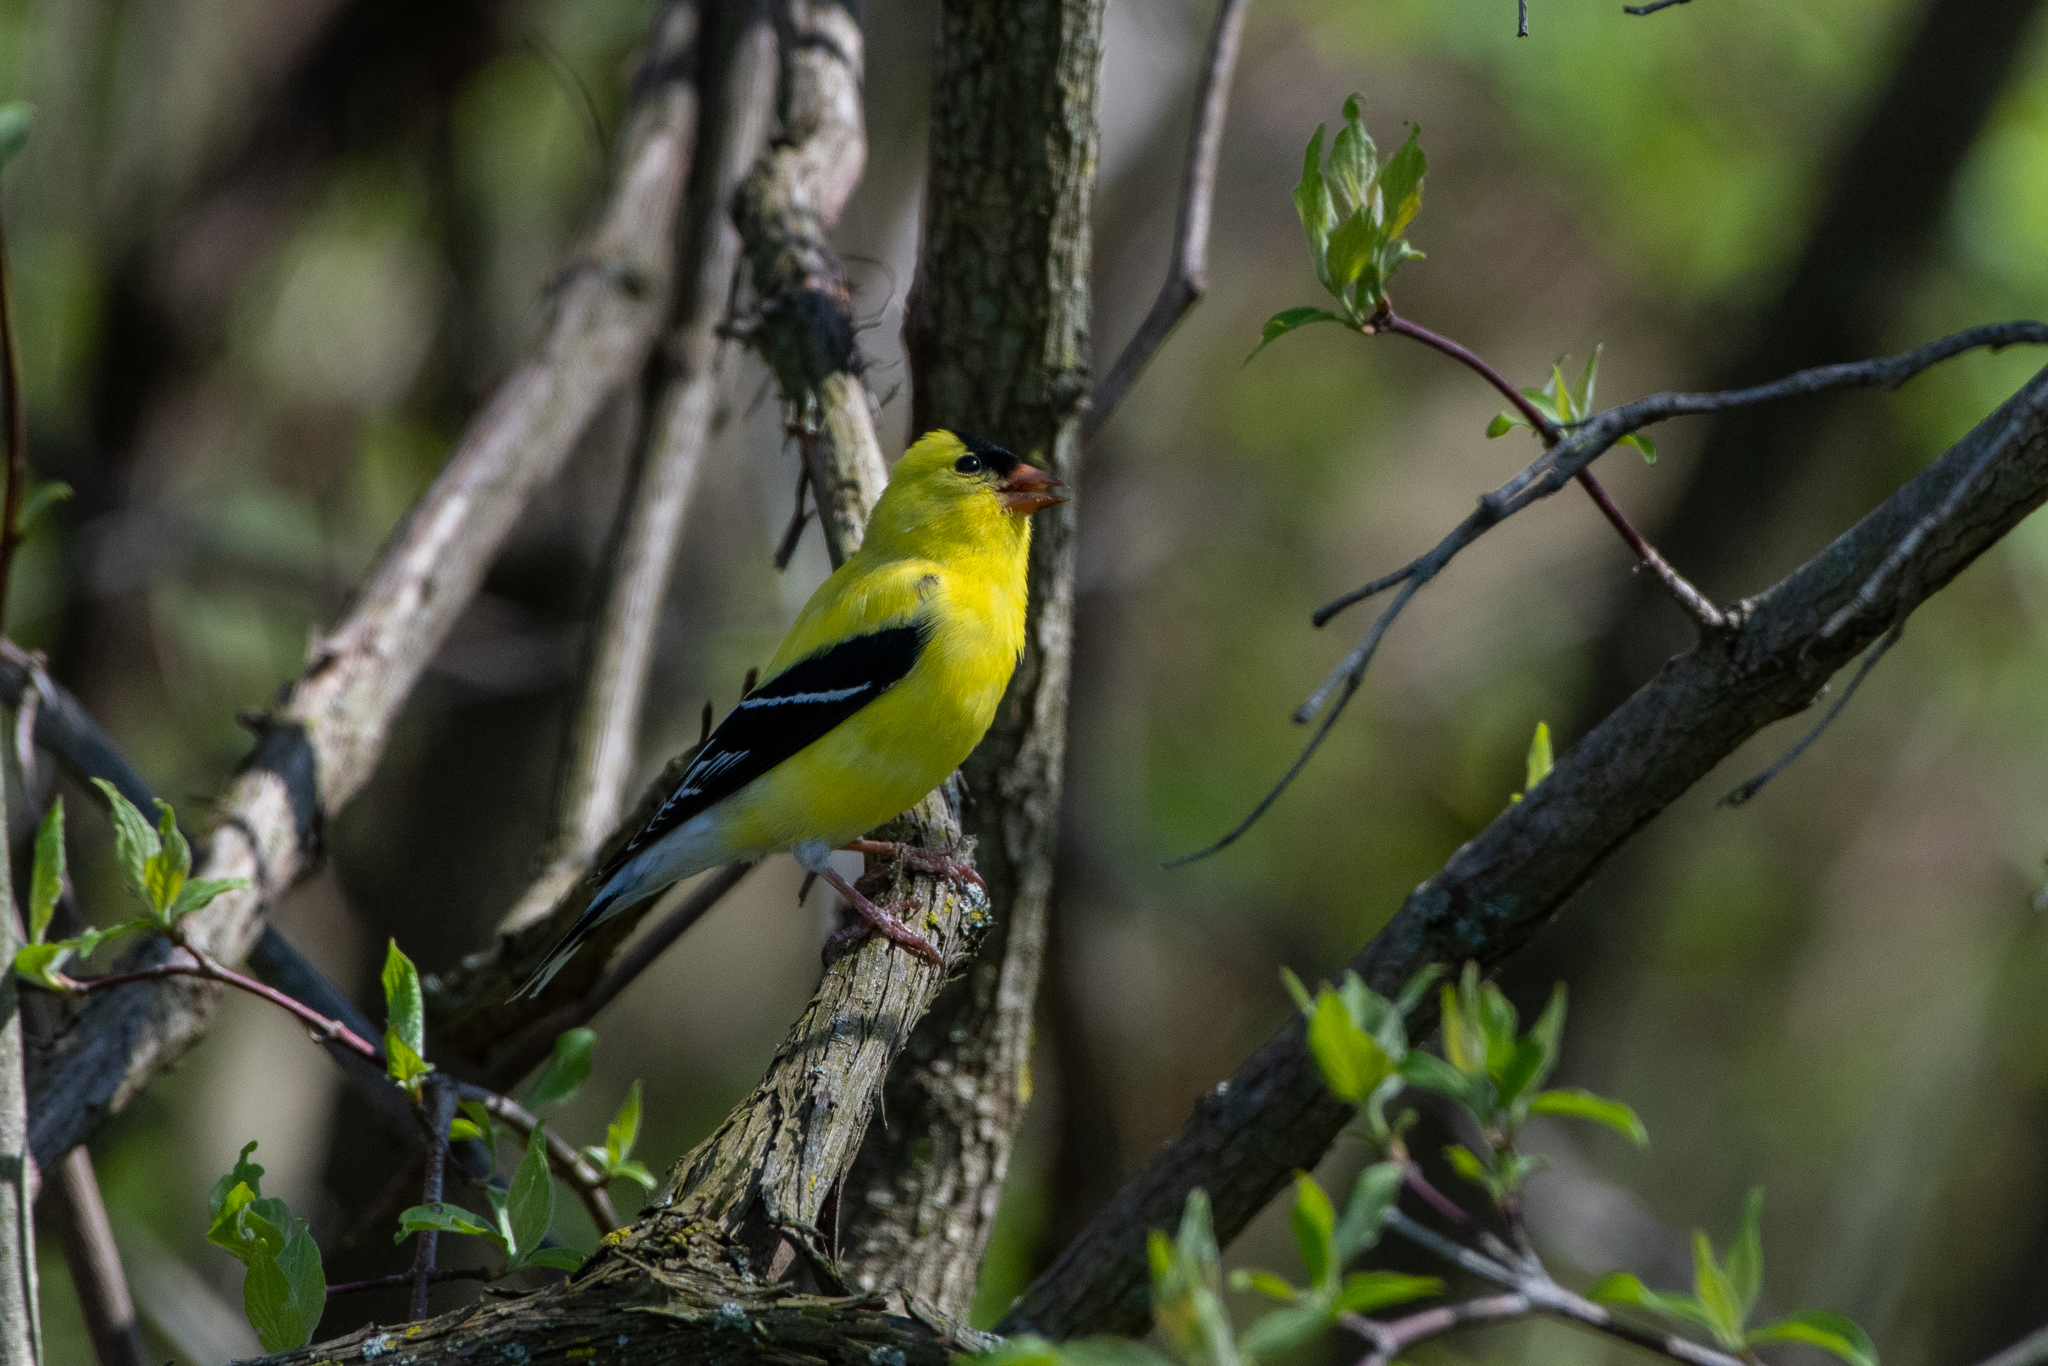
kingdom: Animalia
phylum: Chordata
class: Aves
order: Passeriformes
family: Fringillidae
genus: Spinus
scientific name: Spinus tristis
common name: American goldfinch
